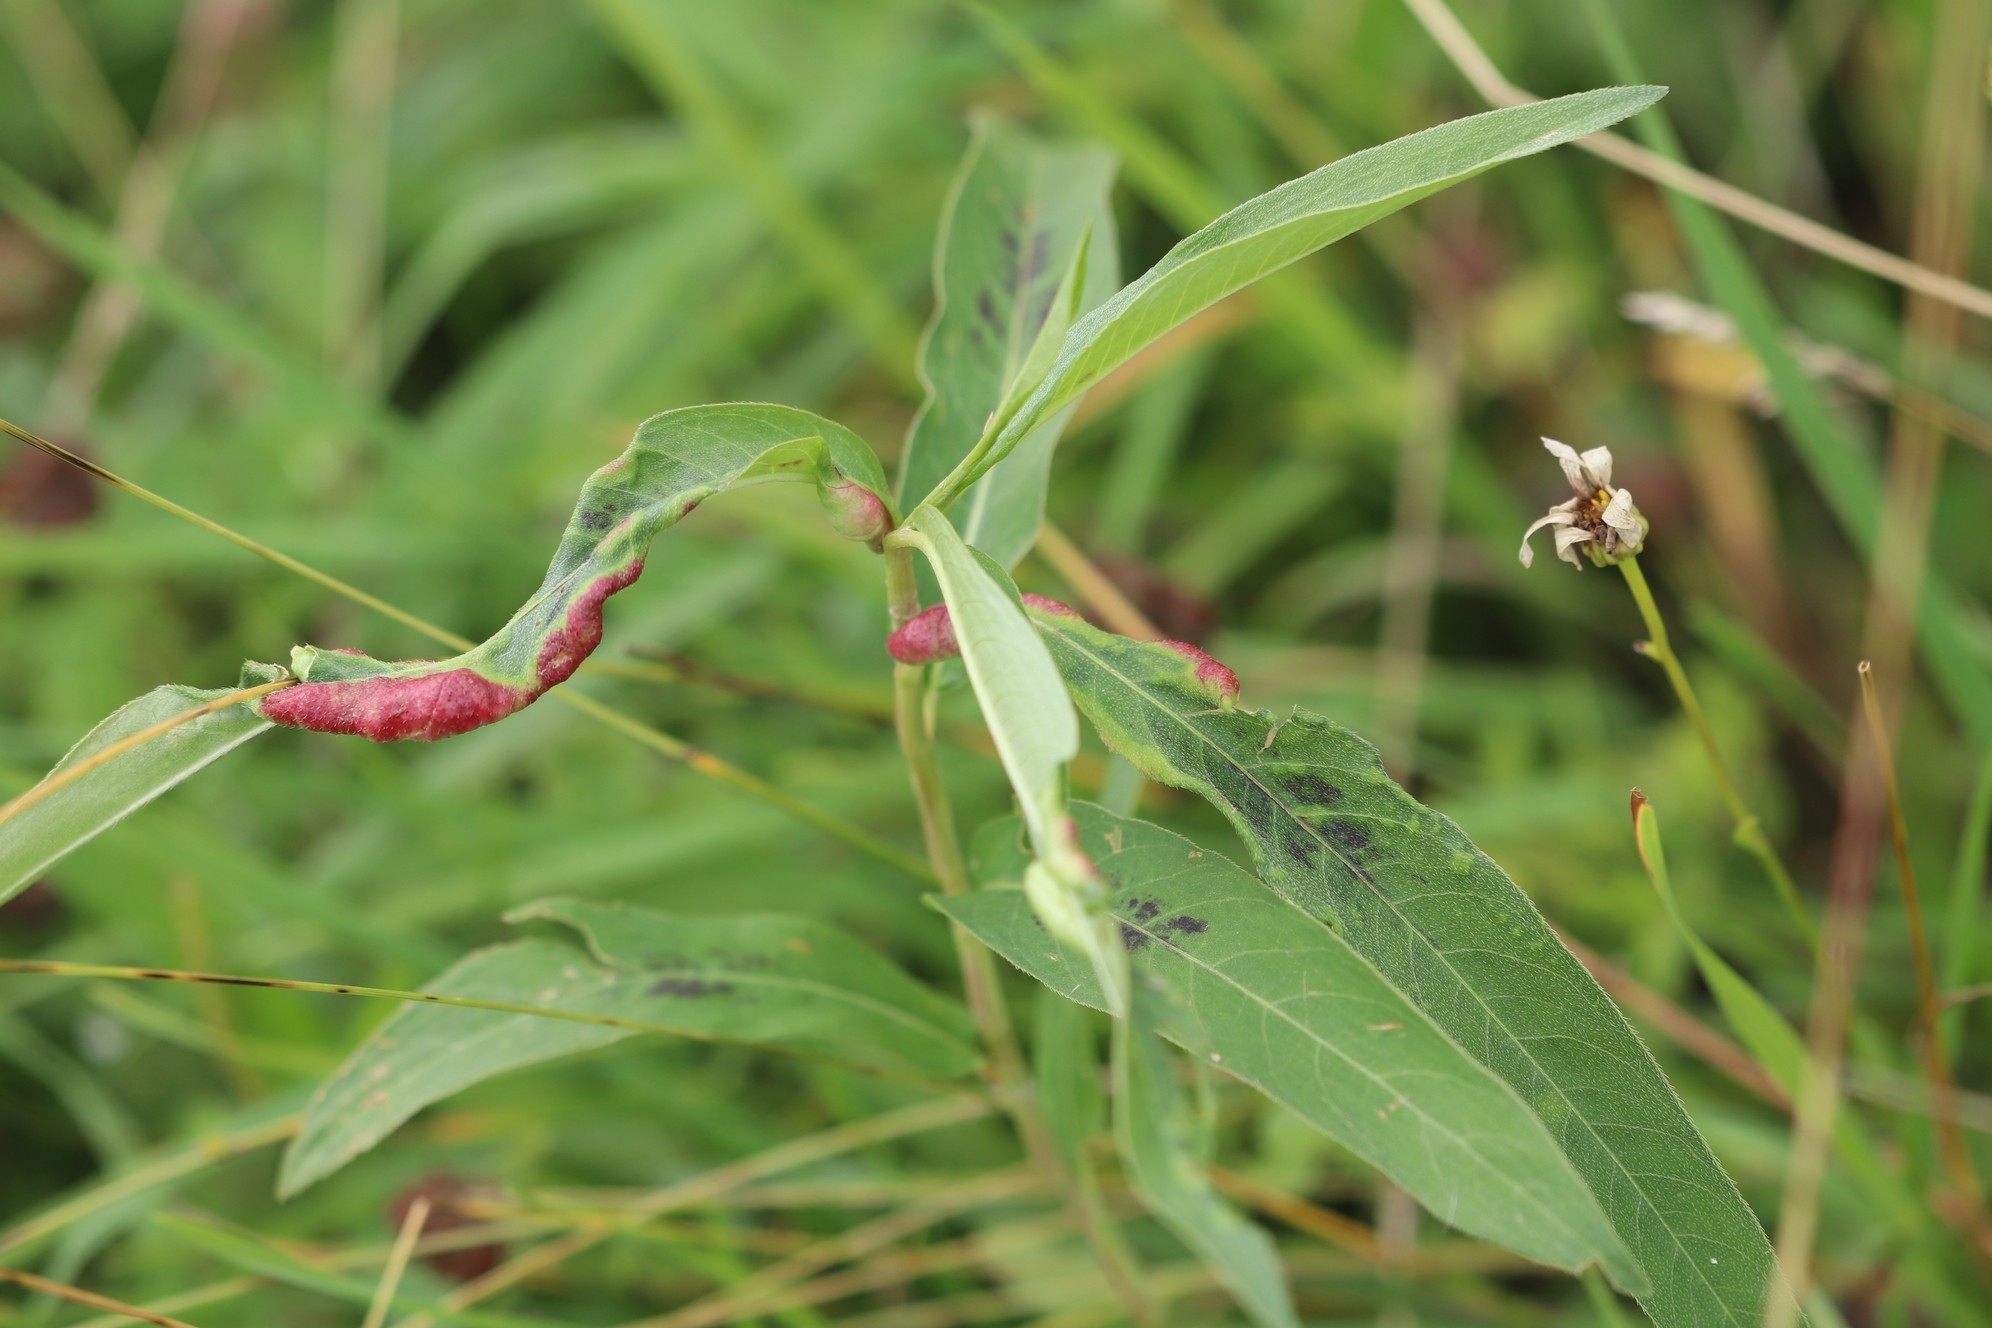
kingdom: Plantae
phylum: Tracheophyta
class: Magnoliopsida
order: Caryophyllales
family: Polygonaceae
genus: Persicaria
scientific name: Persicaria maculosa
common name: Redshank
